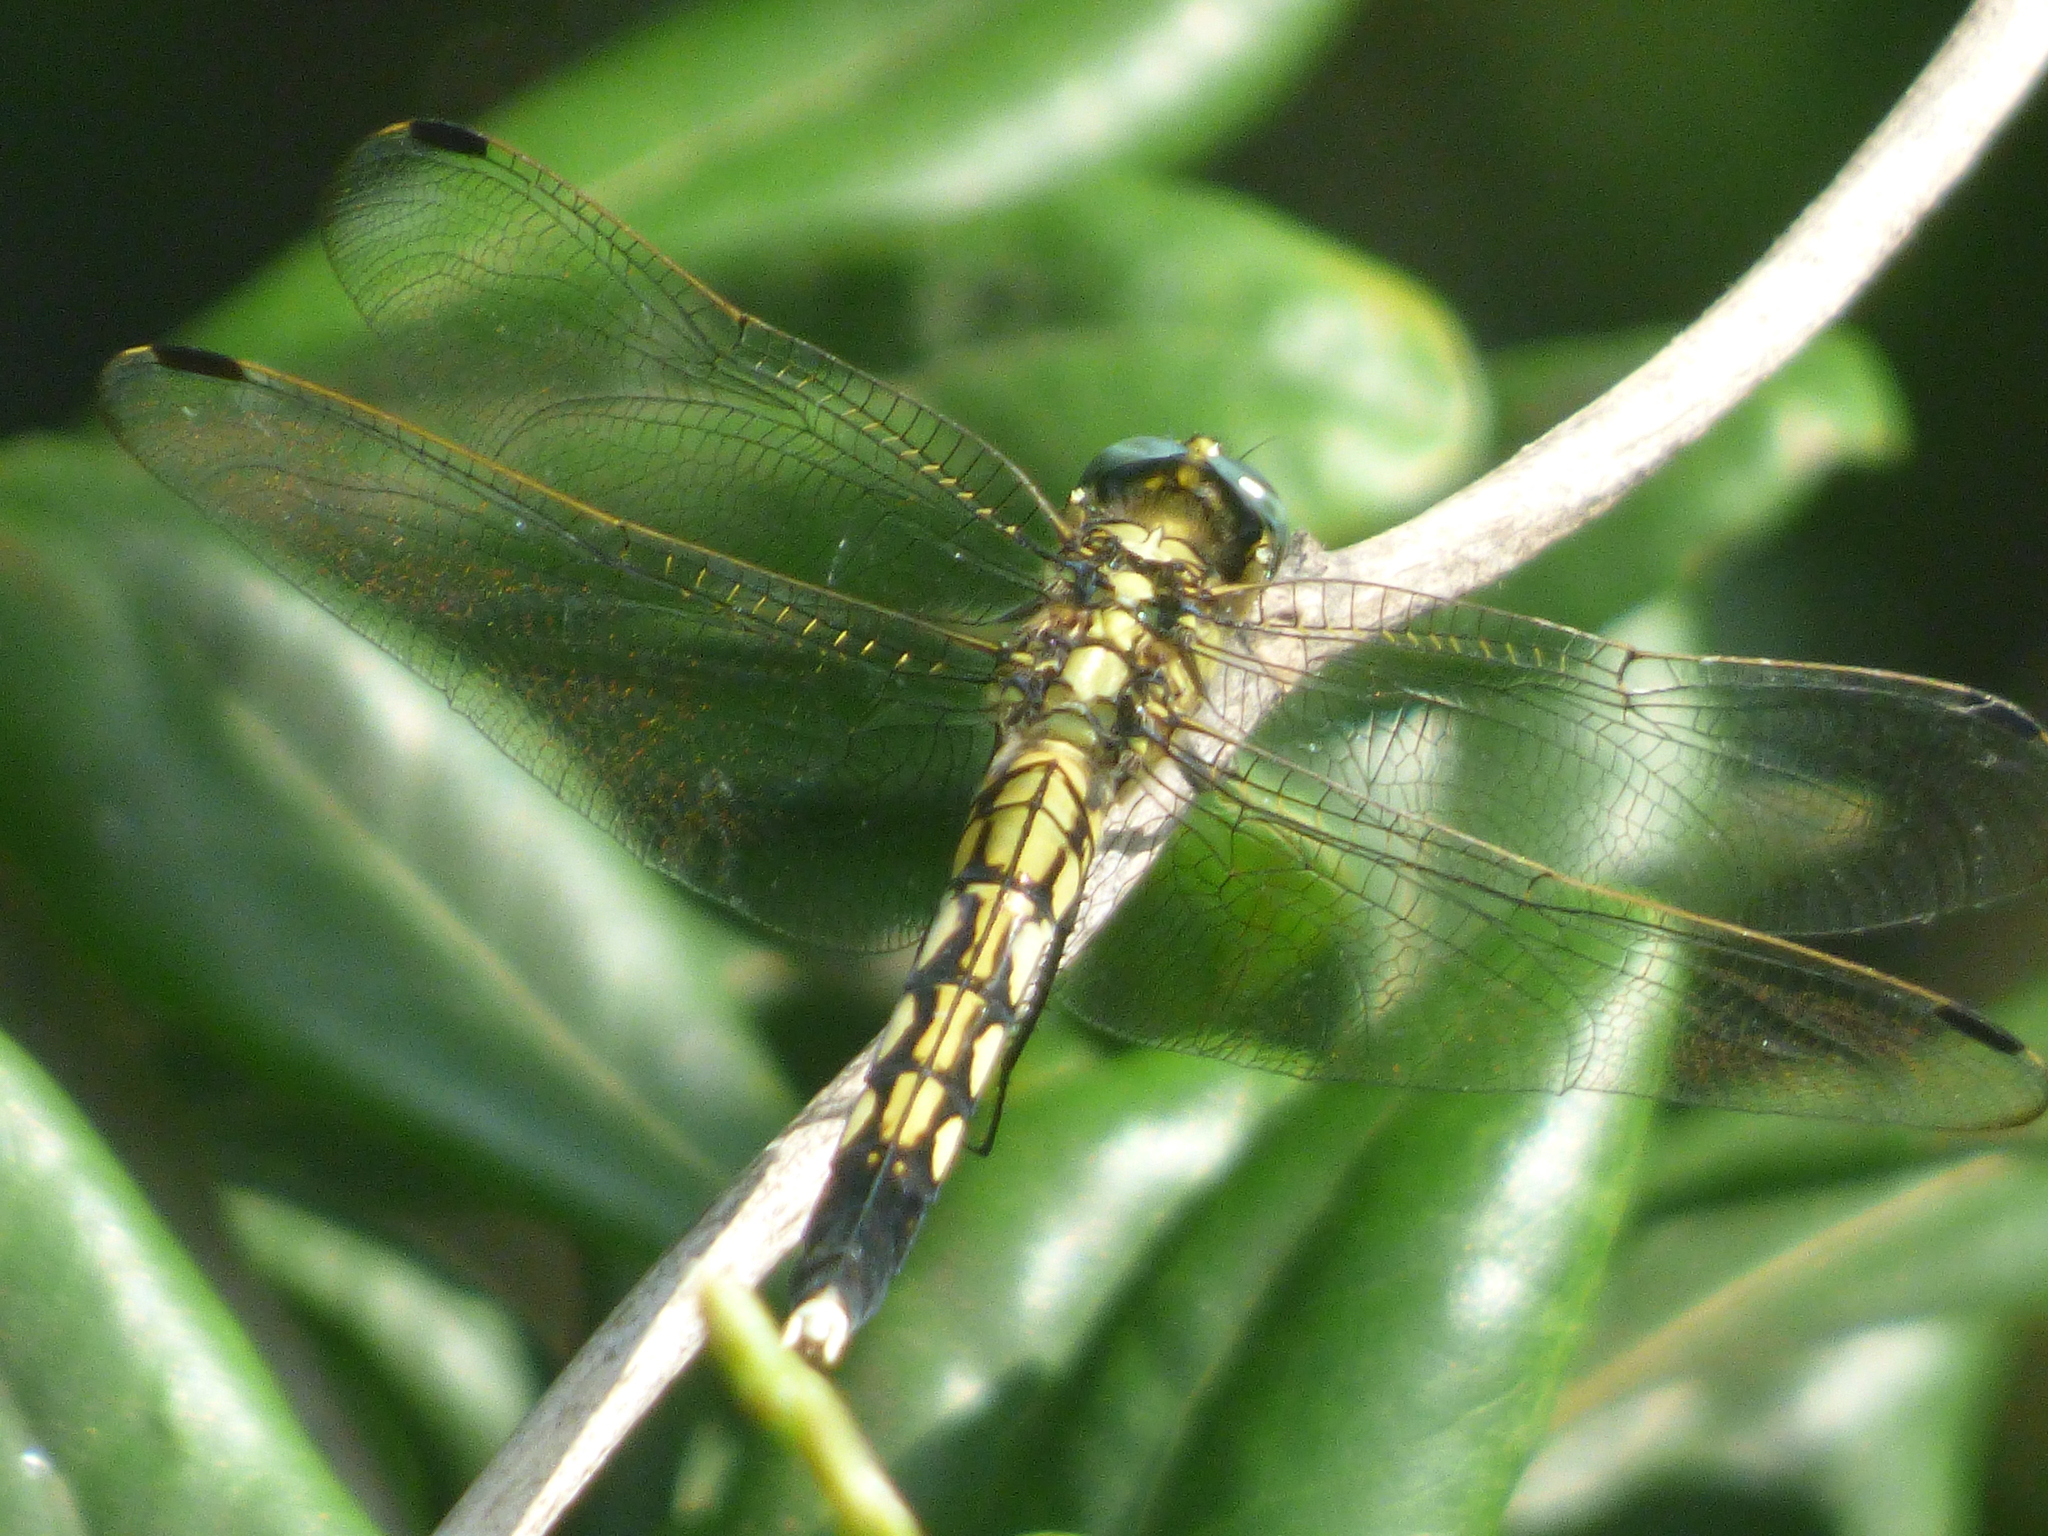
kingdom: Animalia
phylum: Arthropoda
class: Insecta
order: Odonata
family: Libellulidae
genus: Orthetrum
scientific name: Orthetrum albistylum
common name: White-tailed skimmer
